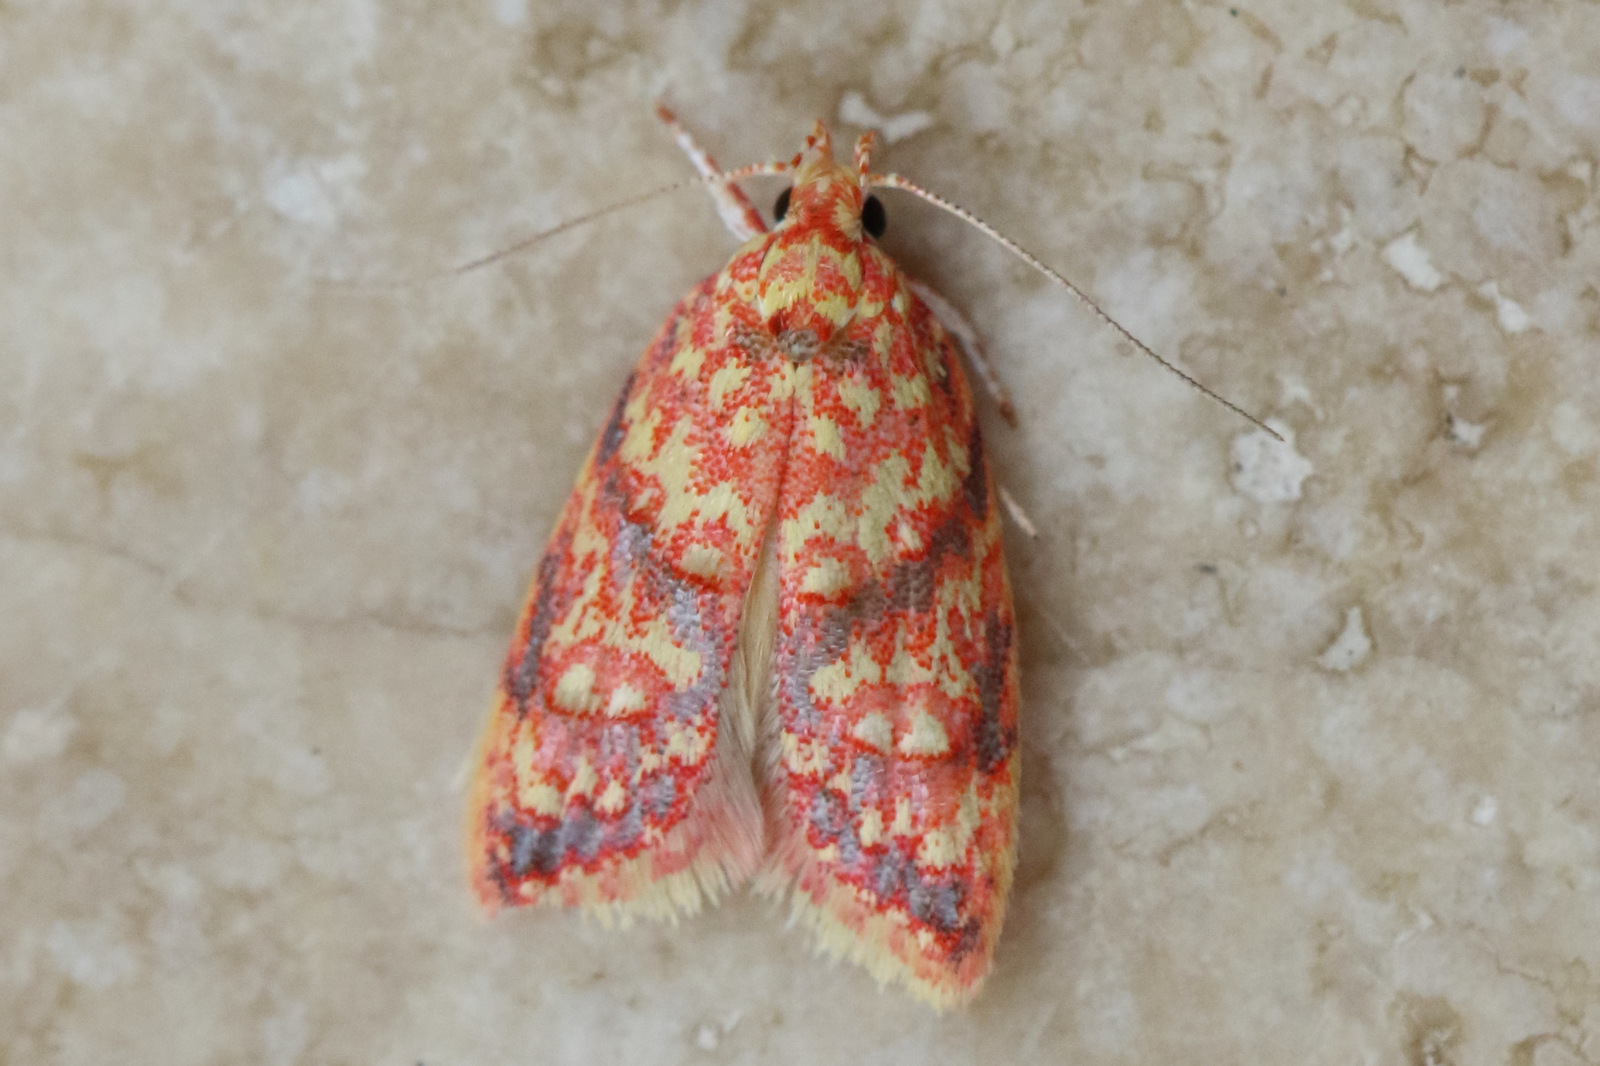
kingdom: Animalia
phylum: Arthropoda
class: Insecta
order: Lepidoptera
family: Oecophoridae
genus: Lophopepla
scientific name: Lophopepla igniferella
